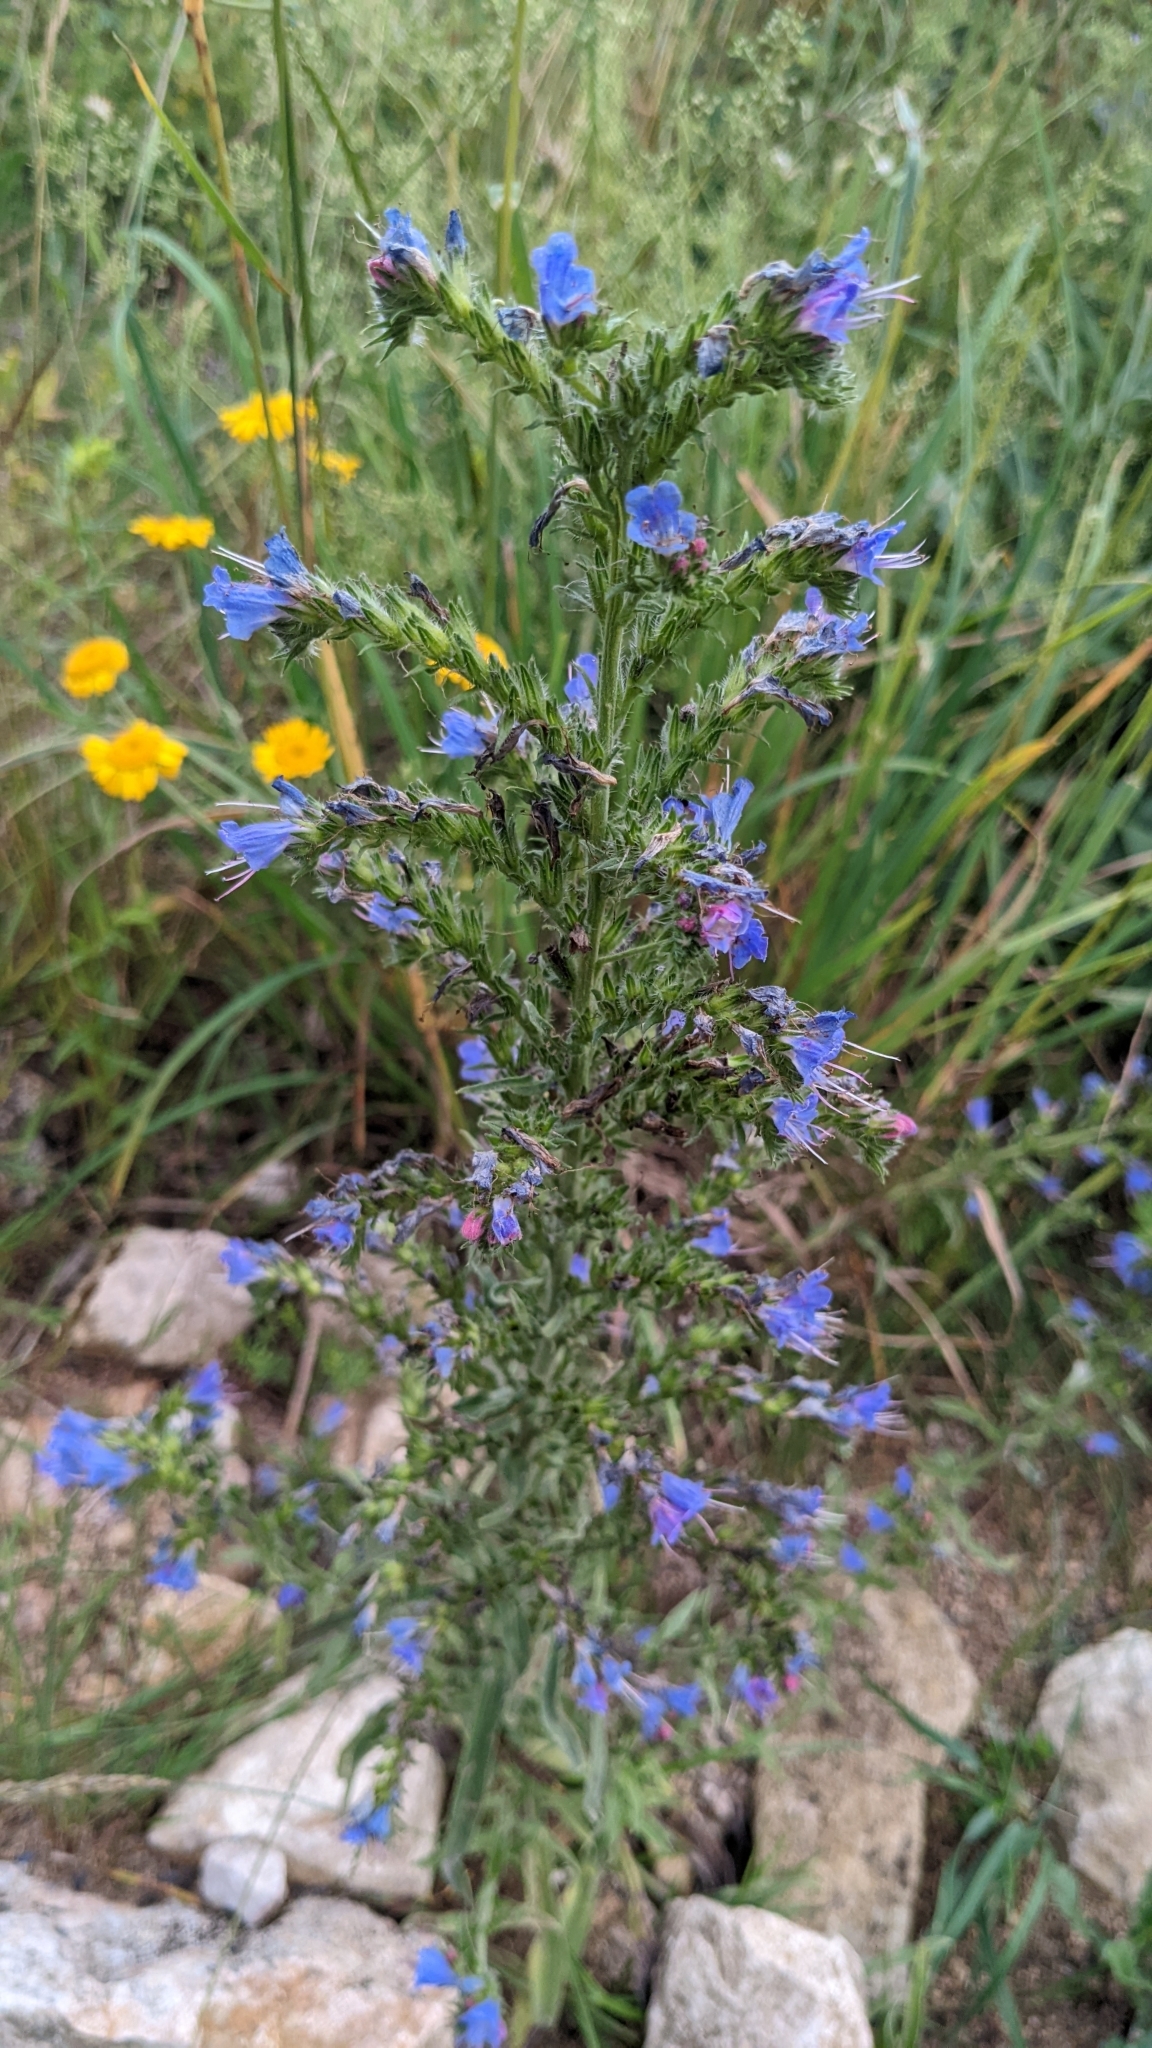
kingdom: Plantae
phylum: Tracheophyta
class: Magnoliopsida
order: Boraginales
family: Boraginaceae
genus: Echium
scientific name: Echium vulgare
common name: Common viper's bugloss
